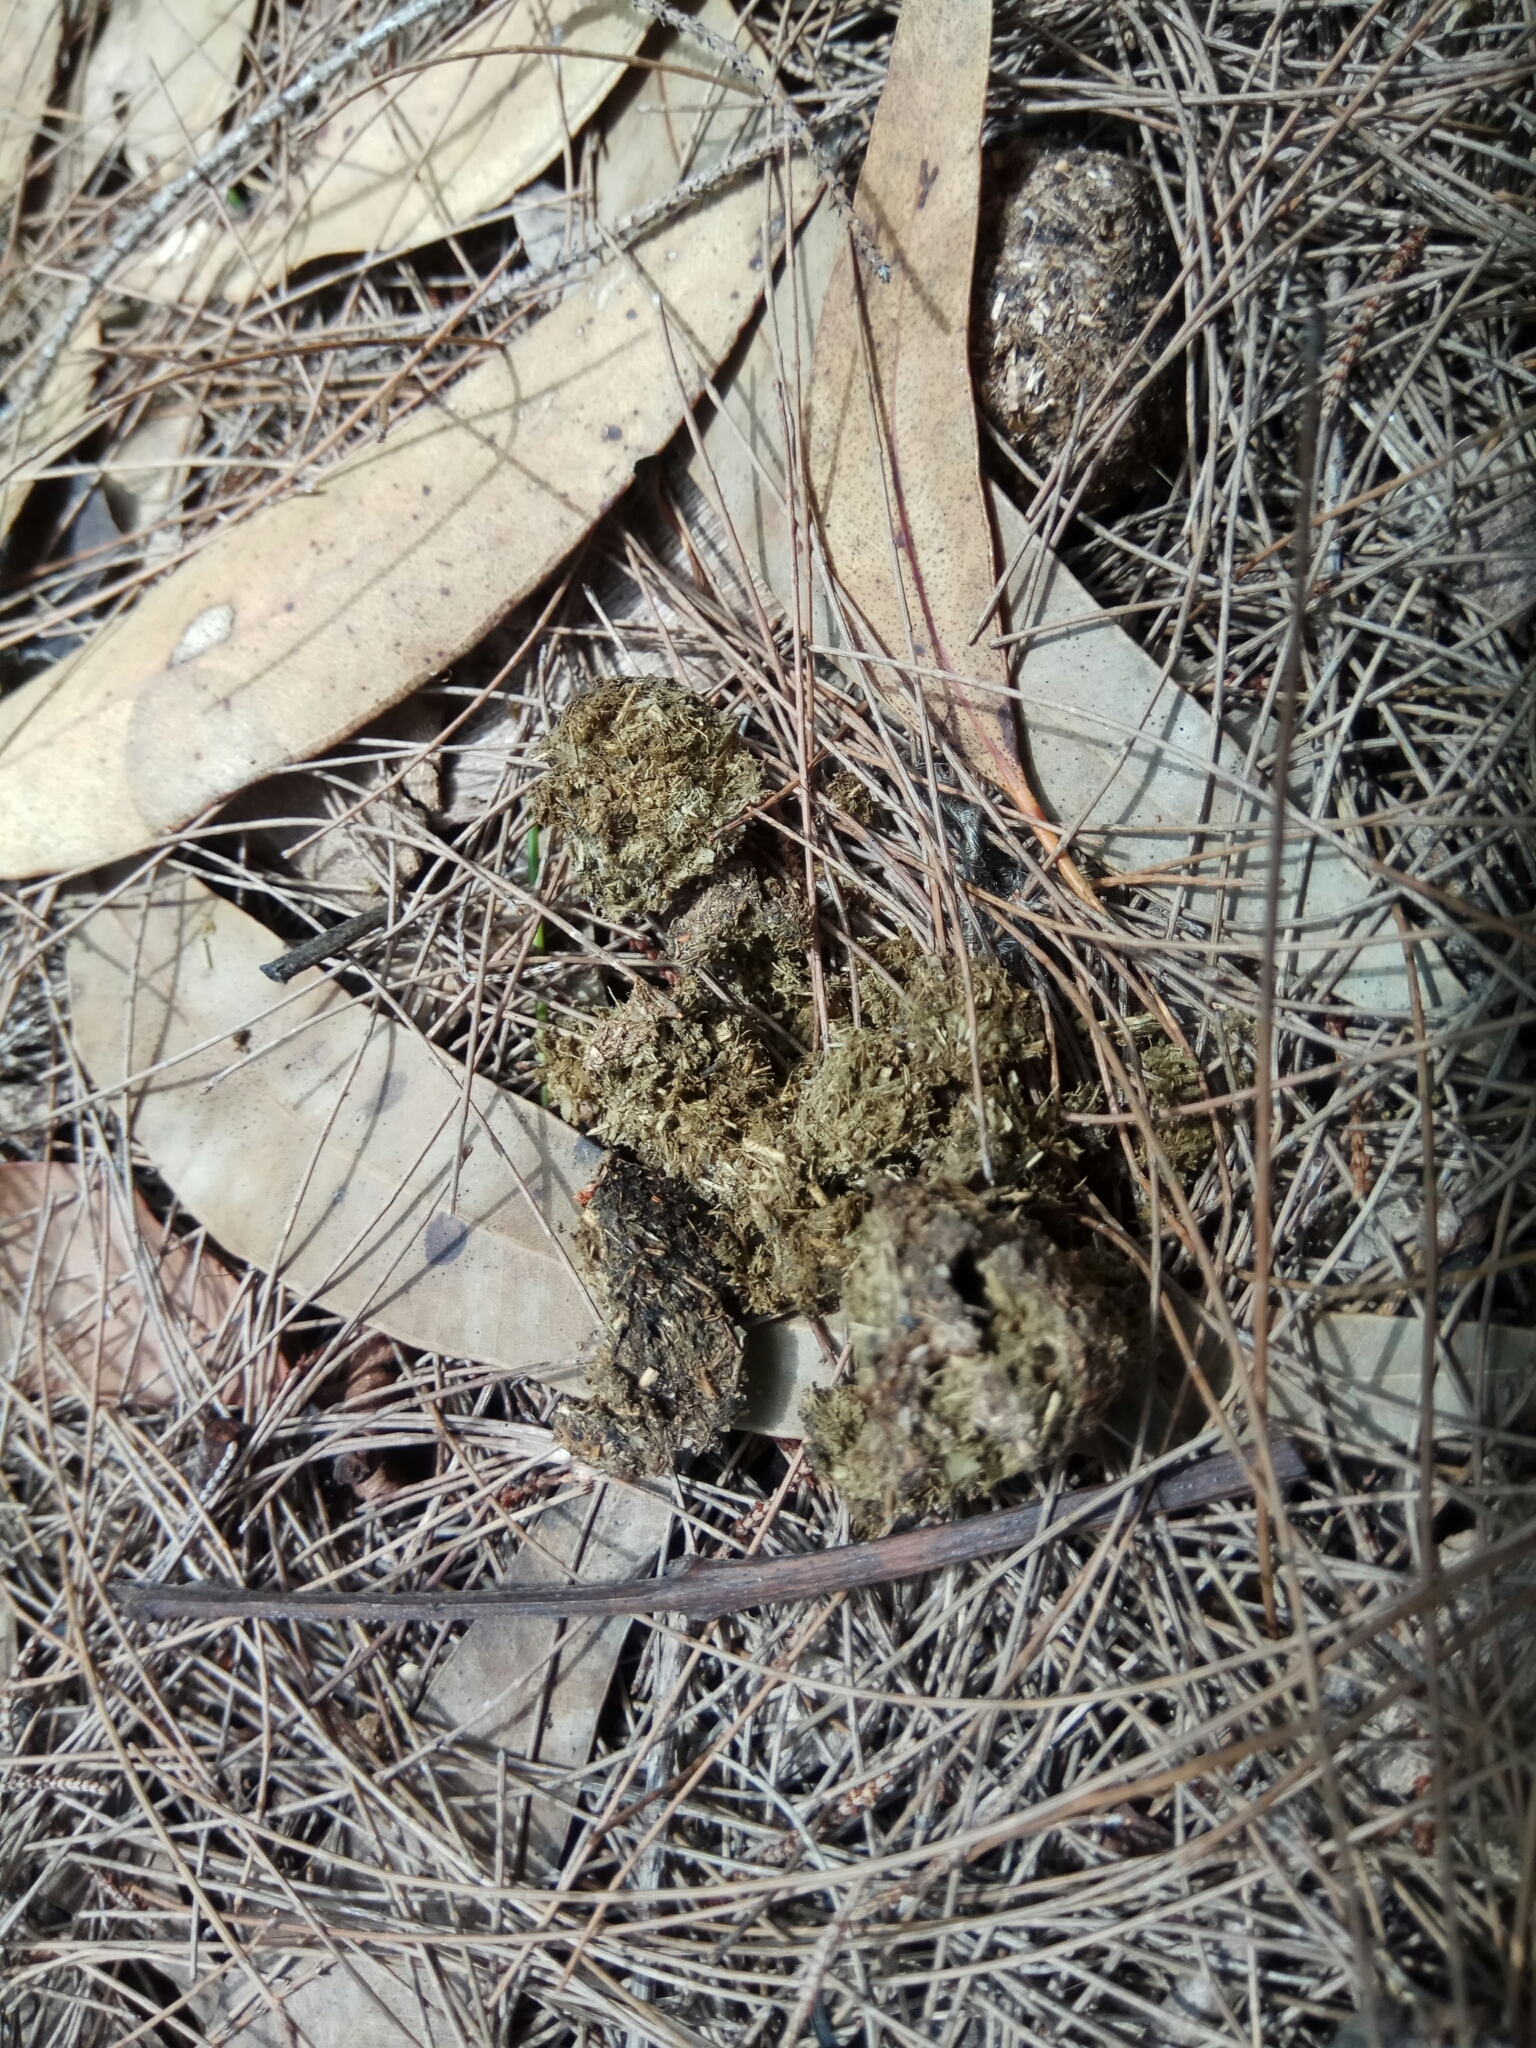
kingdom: Animalia
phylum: Chordata
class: Mammalia
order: Diprotodontia
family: Vombatidae
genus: Vombatus
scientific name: Vombatus ursinus
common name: Common wombat
